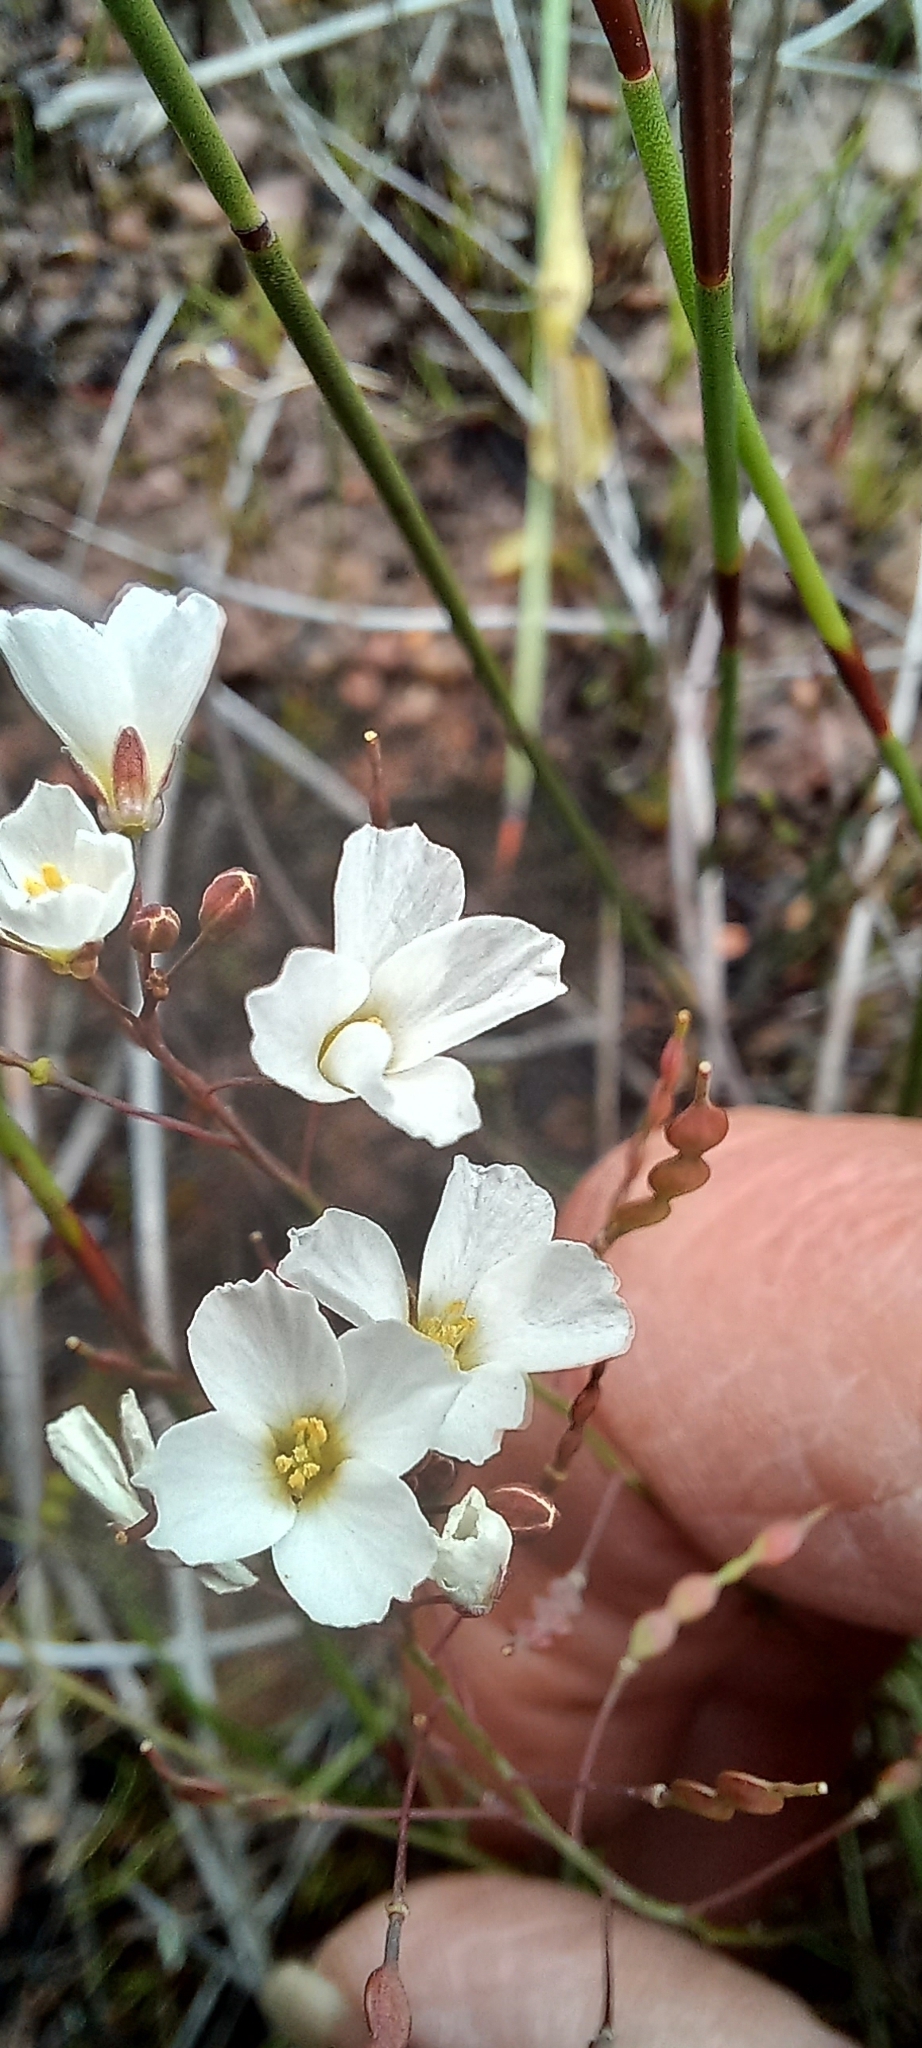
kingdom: Plantae
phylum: Tracheophyta
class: Magnoliopsida
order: Brassicales
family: Brassicaceae
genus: Heliophila
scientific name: Heliophila pusilla
